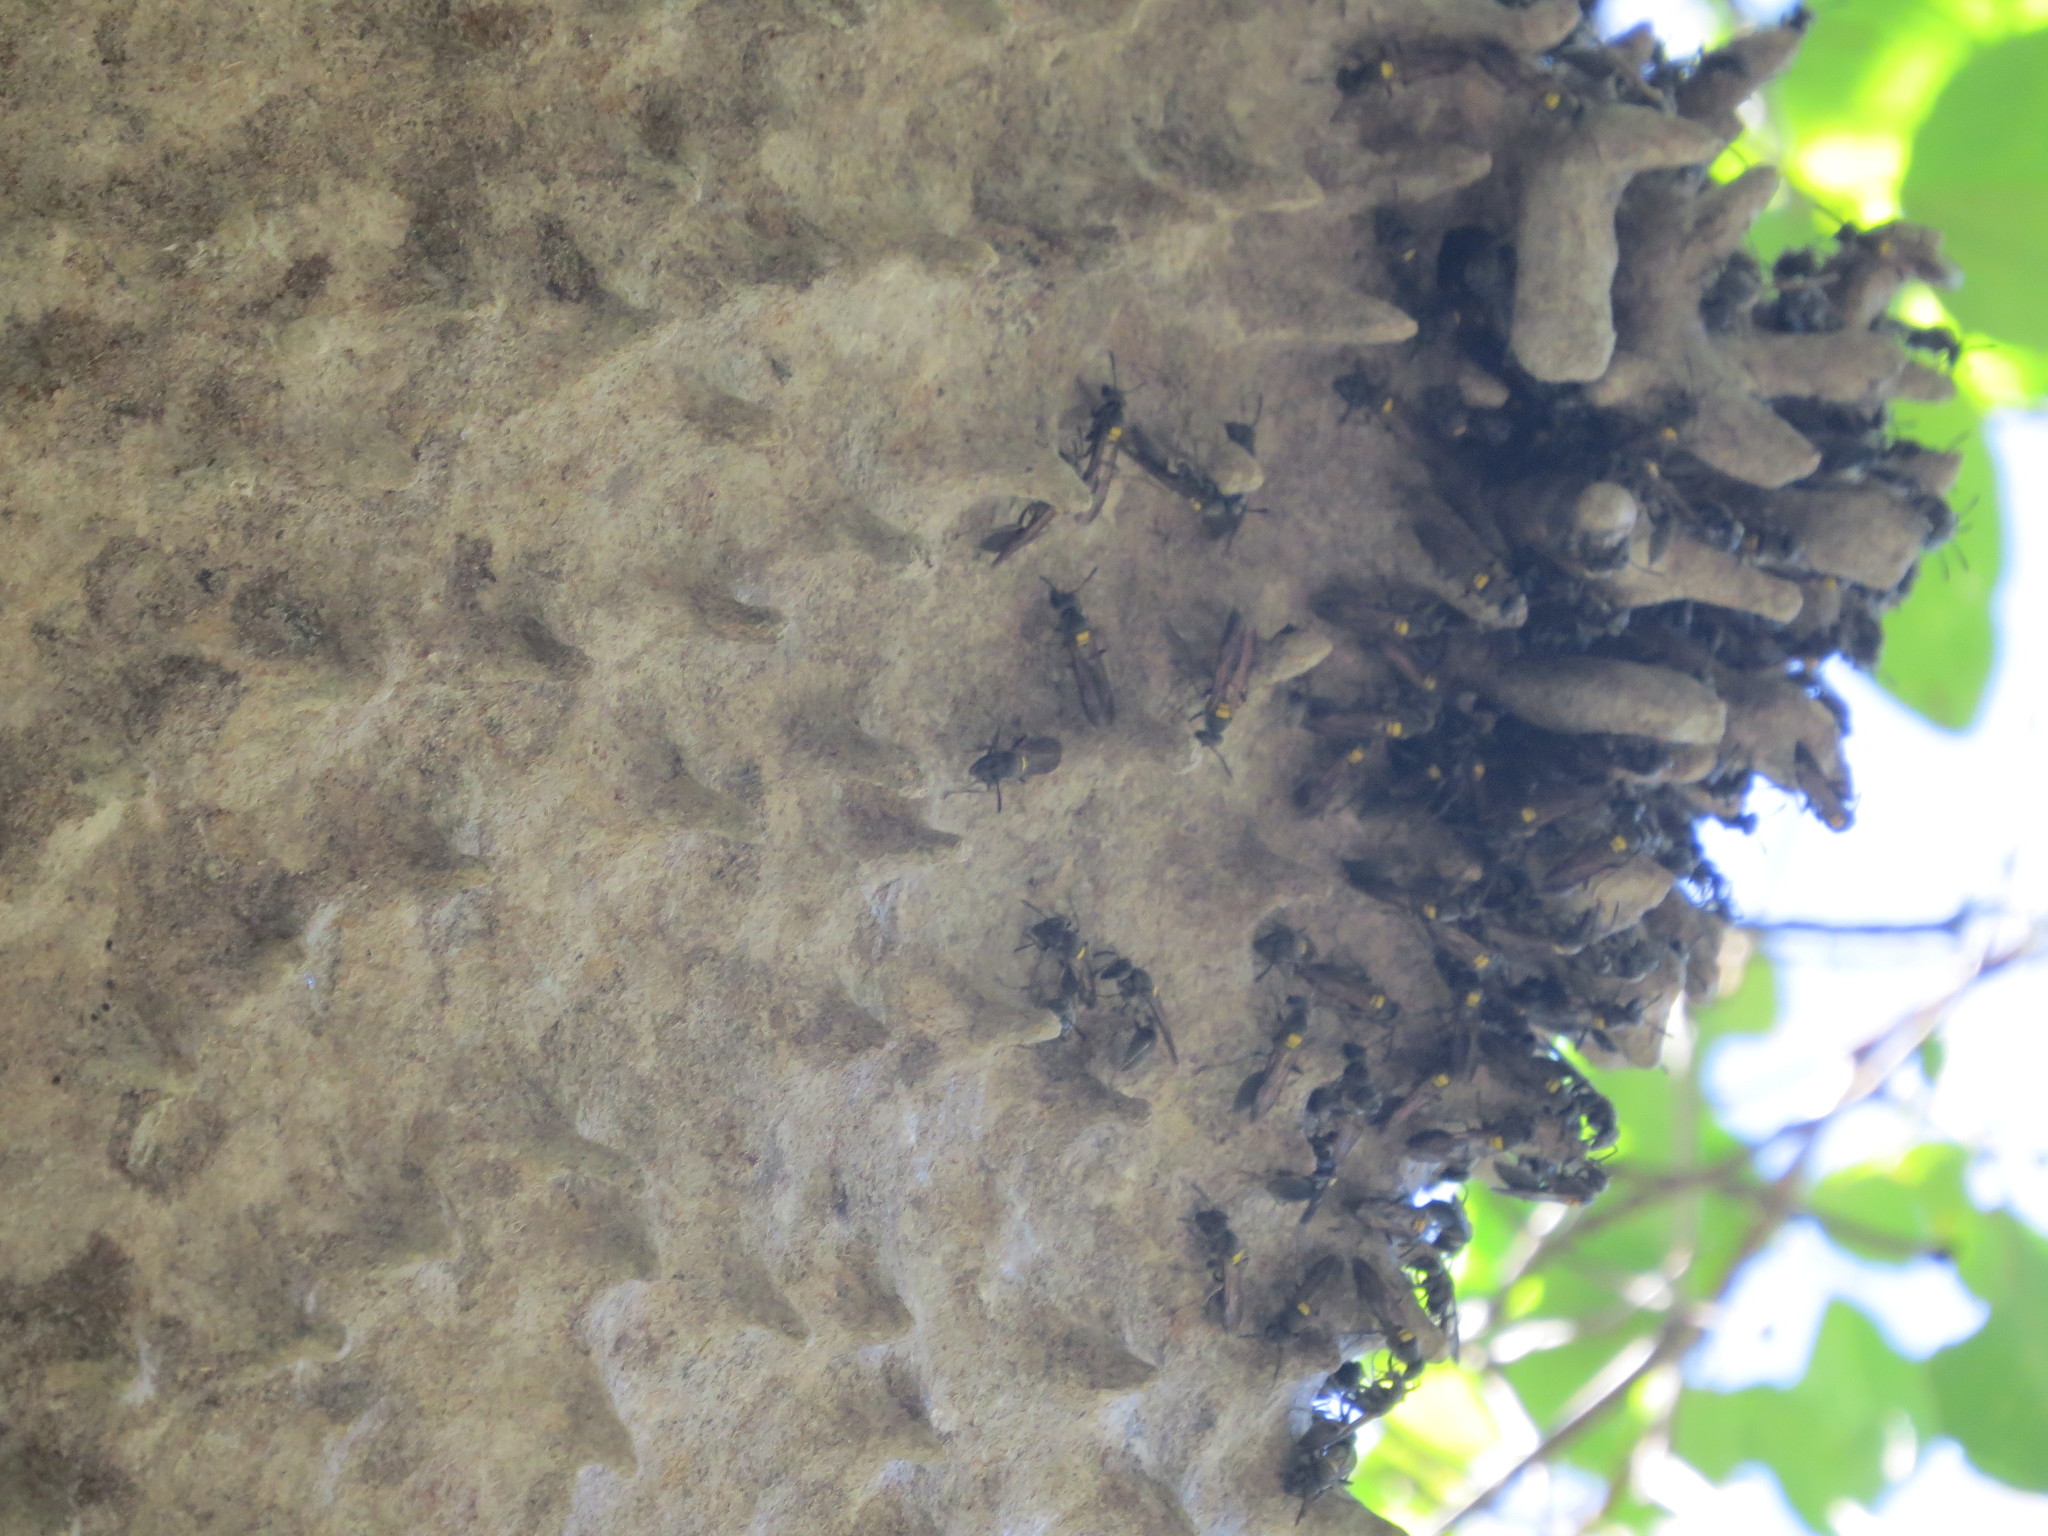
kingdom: Animalia
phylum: Arthropoda
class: Insecta
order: Hymenoptera
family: Eumenidae
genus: Polybia
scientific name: Polybia scutellaris
